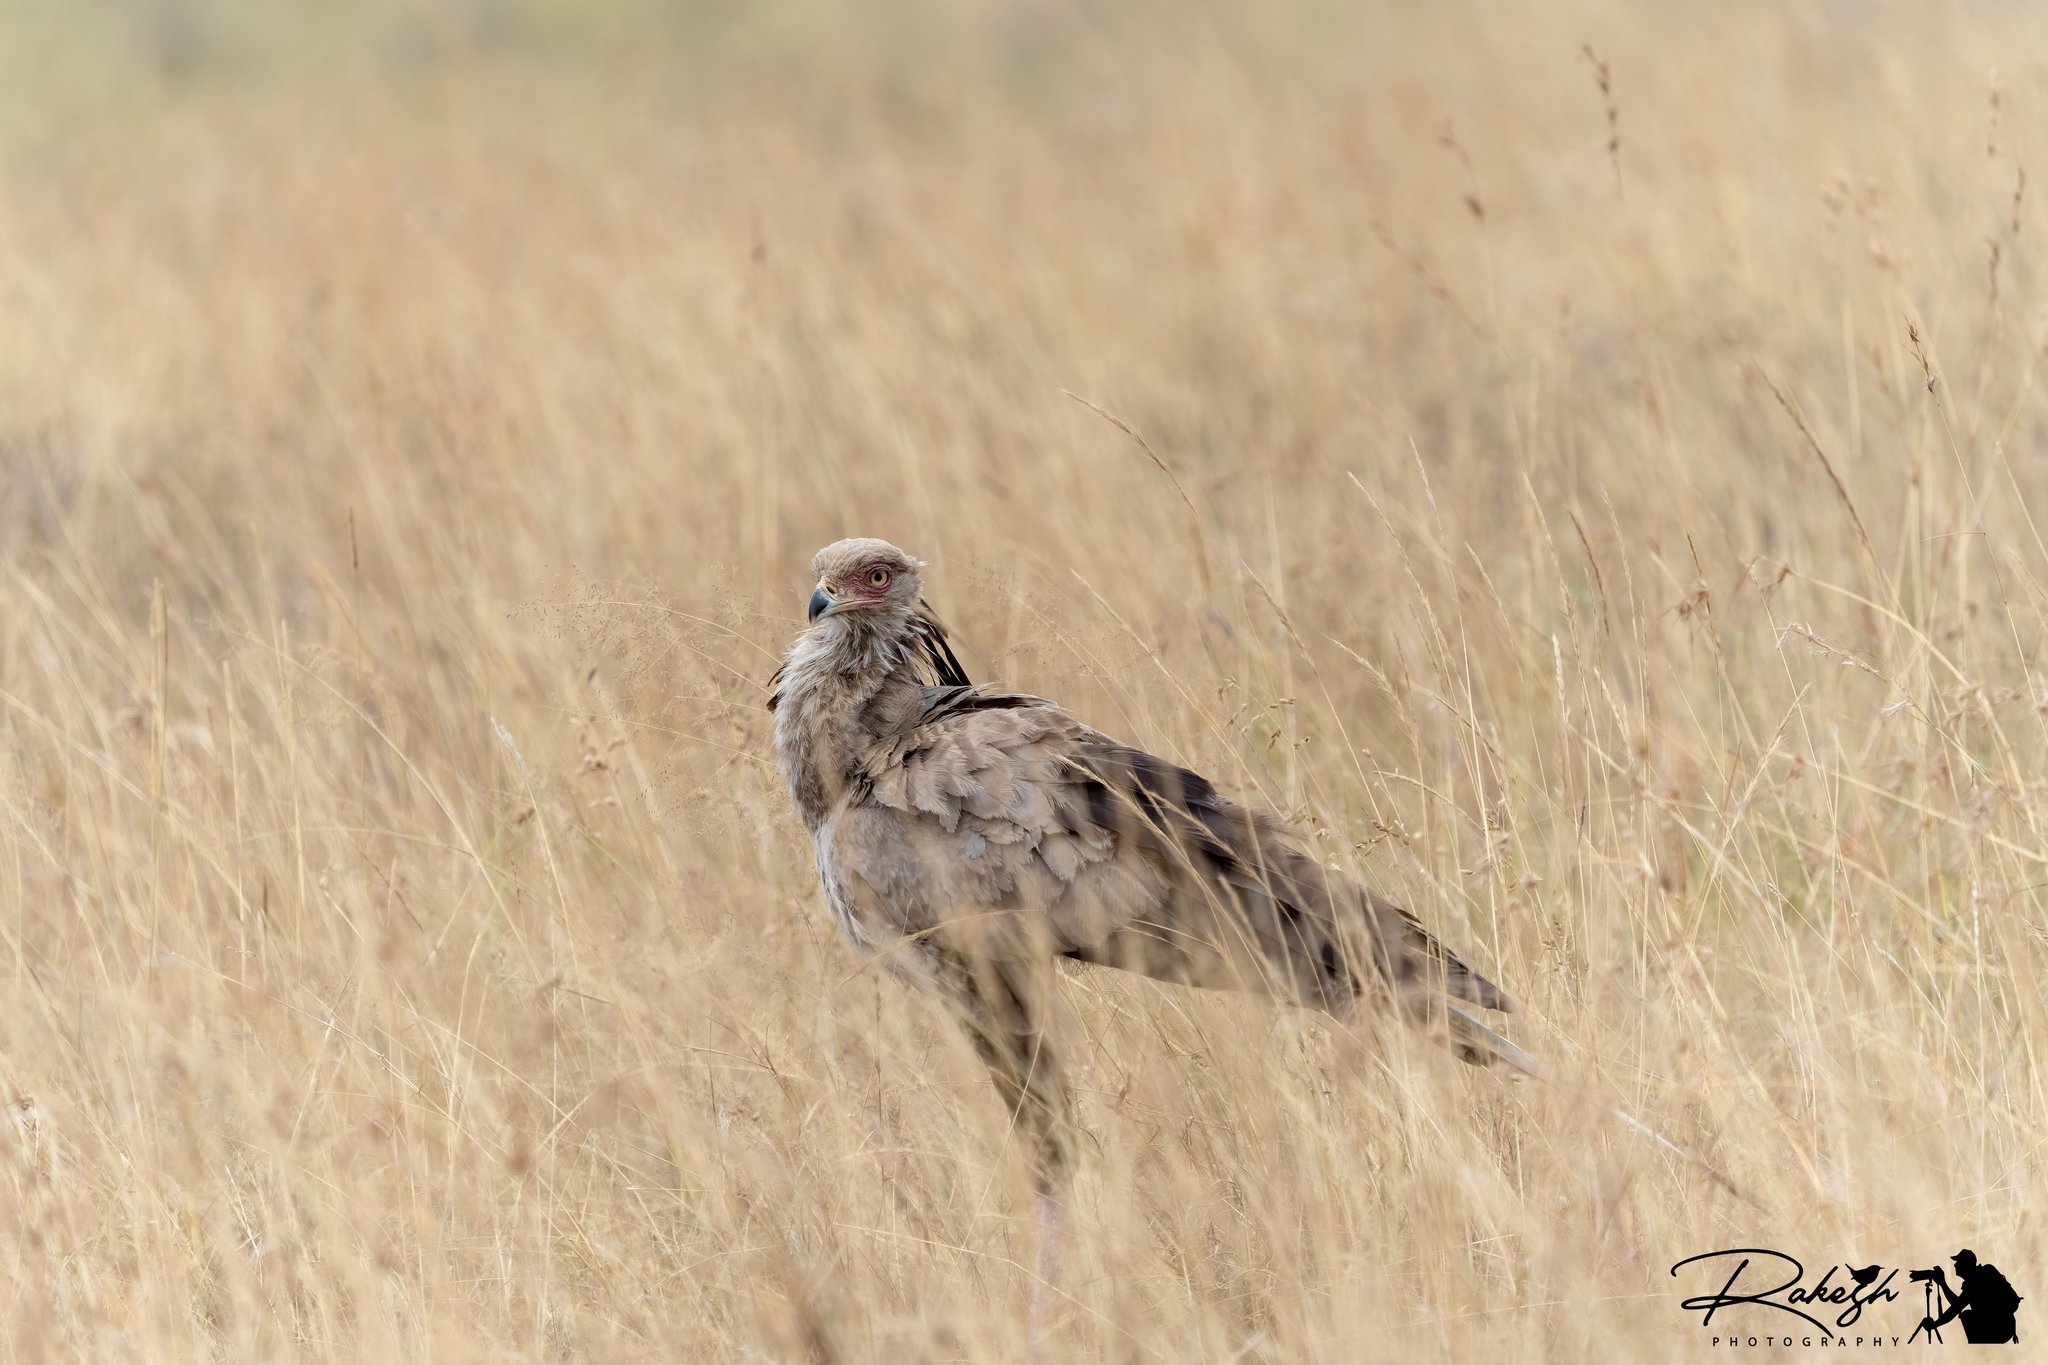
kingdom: Animalia
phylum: Chordata
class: Aves
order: Accipitriformes
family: Sagittariidae
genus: Sagittarius
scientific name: Sagittarius serpentarius
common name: Secretarybird
